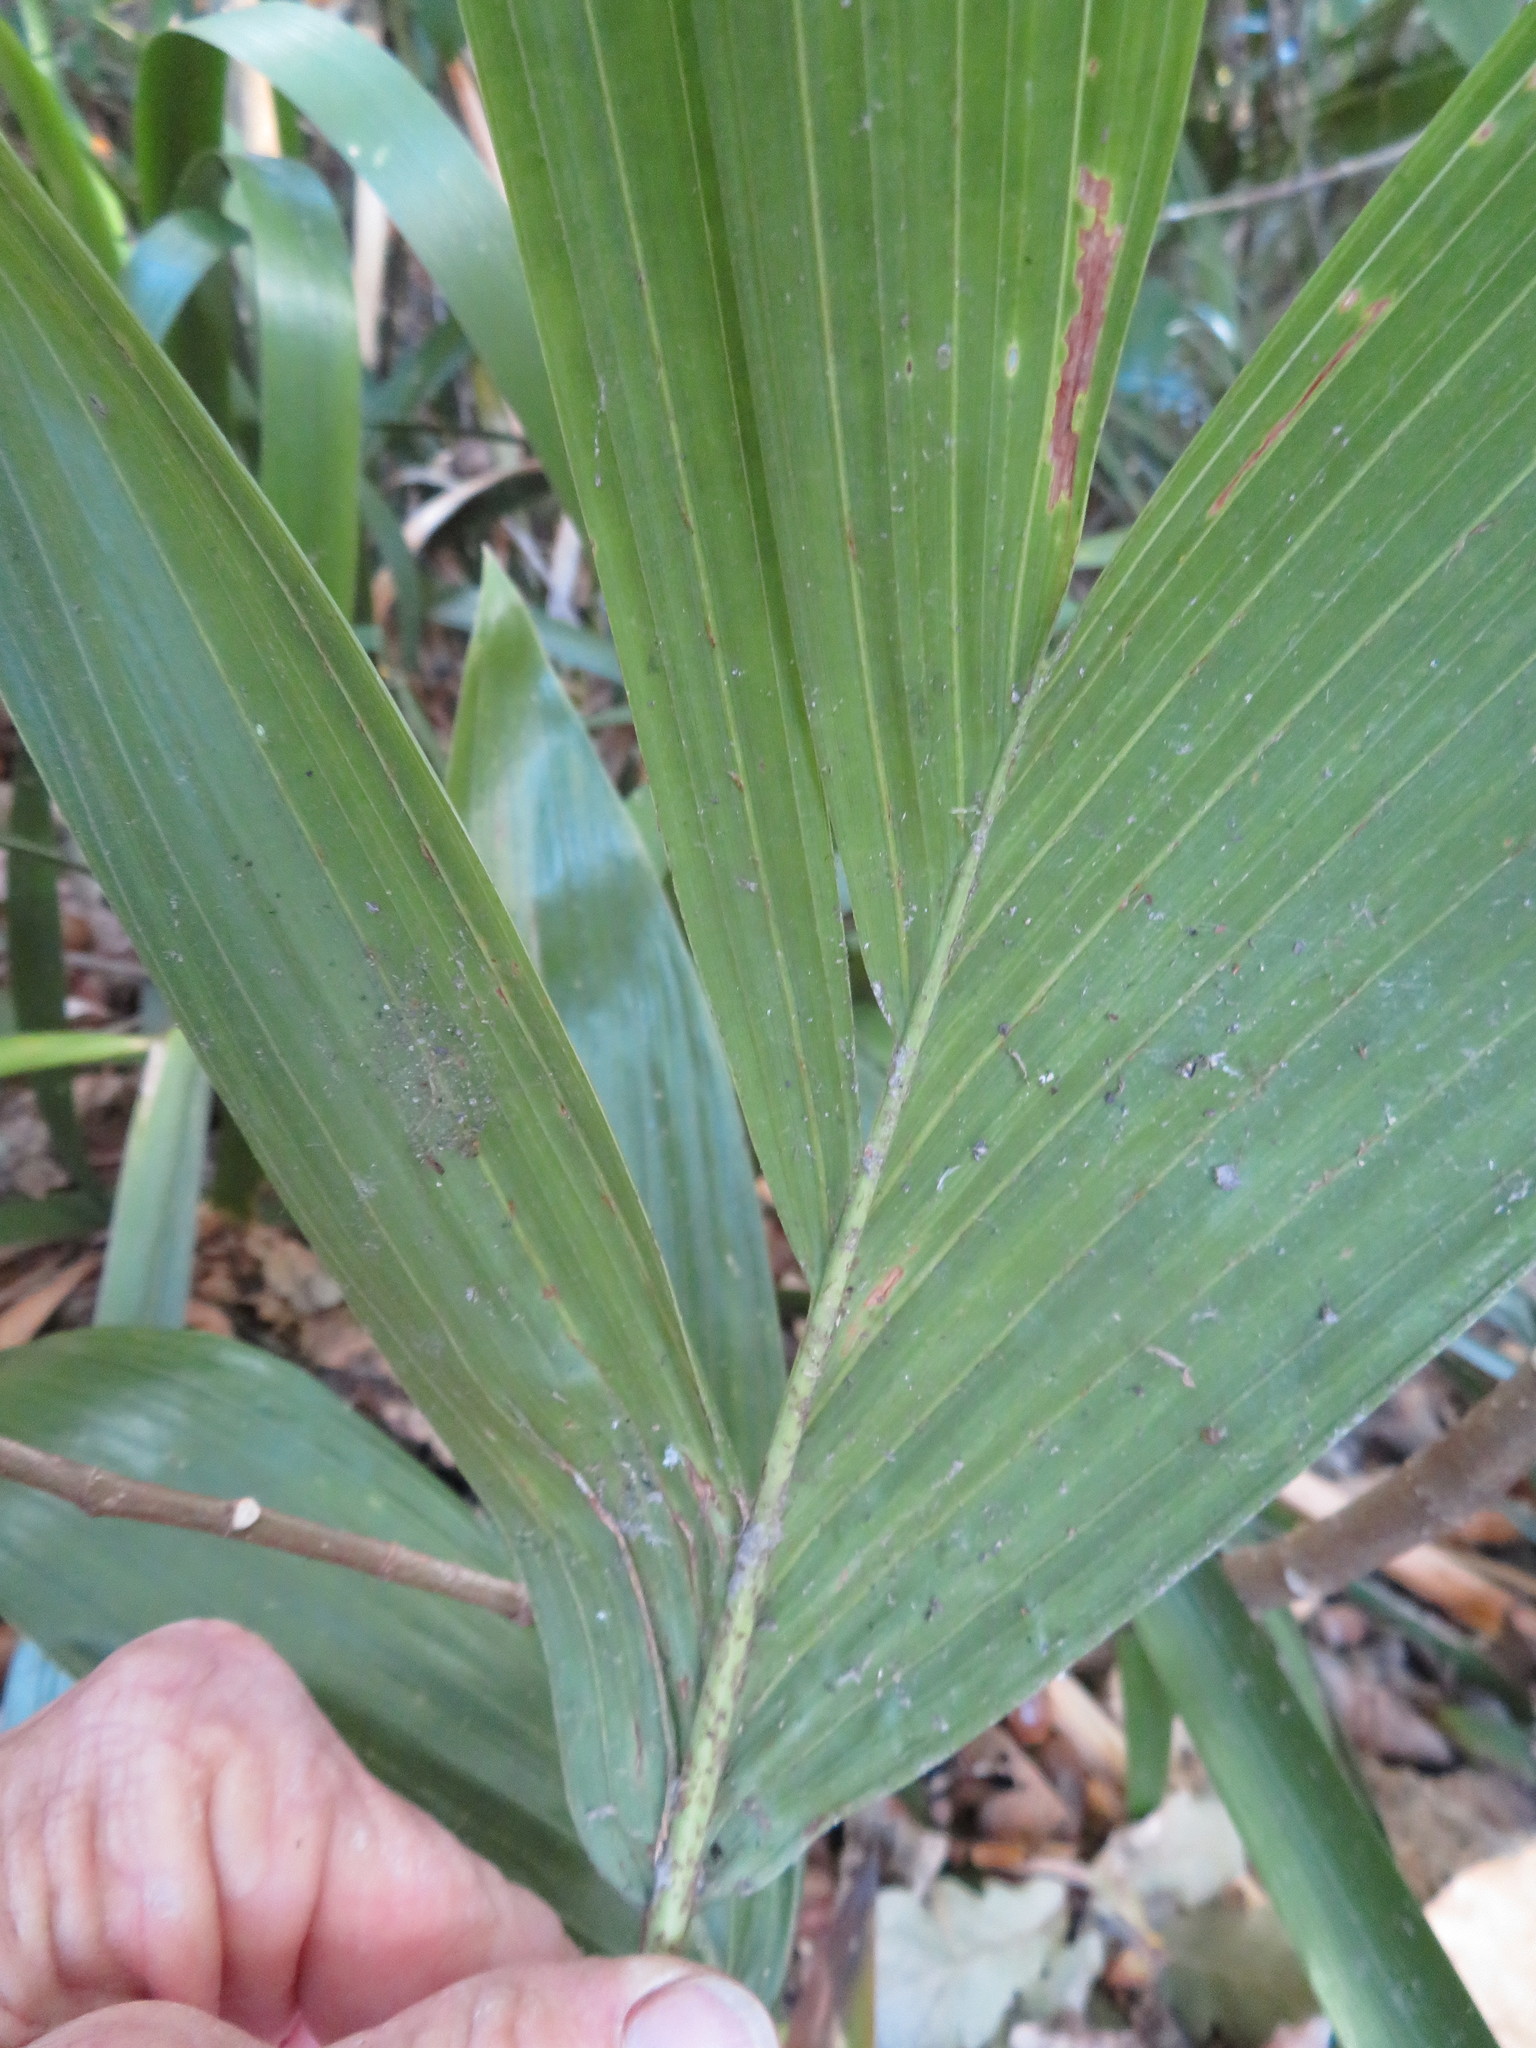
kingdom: Plantae
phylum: Tracheophyta
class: Liliopsida
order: Arecales
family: Arecaceae
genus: Archontophoenix
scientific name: Archontophoenix cunninghamiana
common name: Piccabeen bangalow palm
